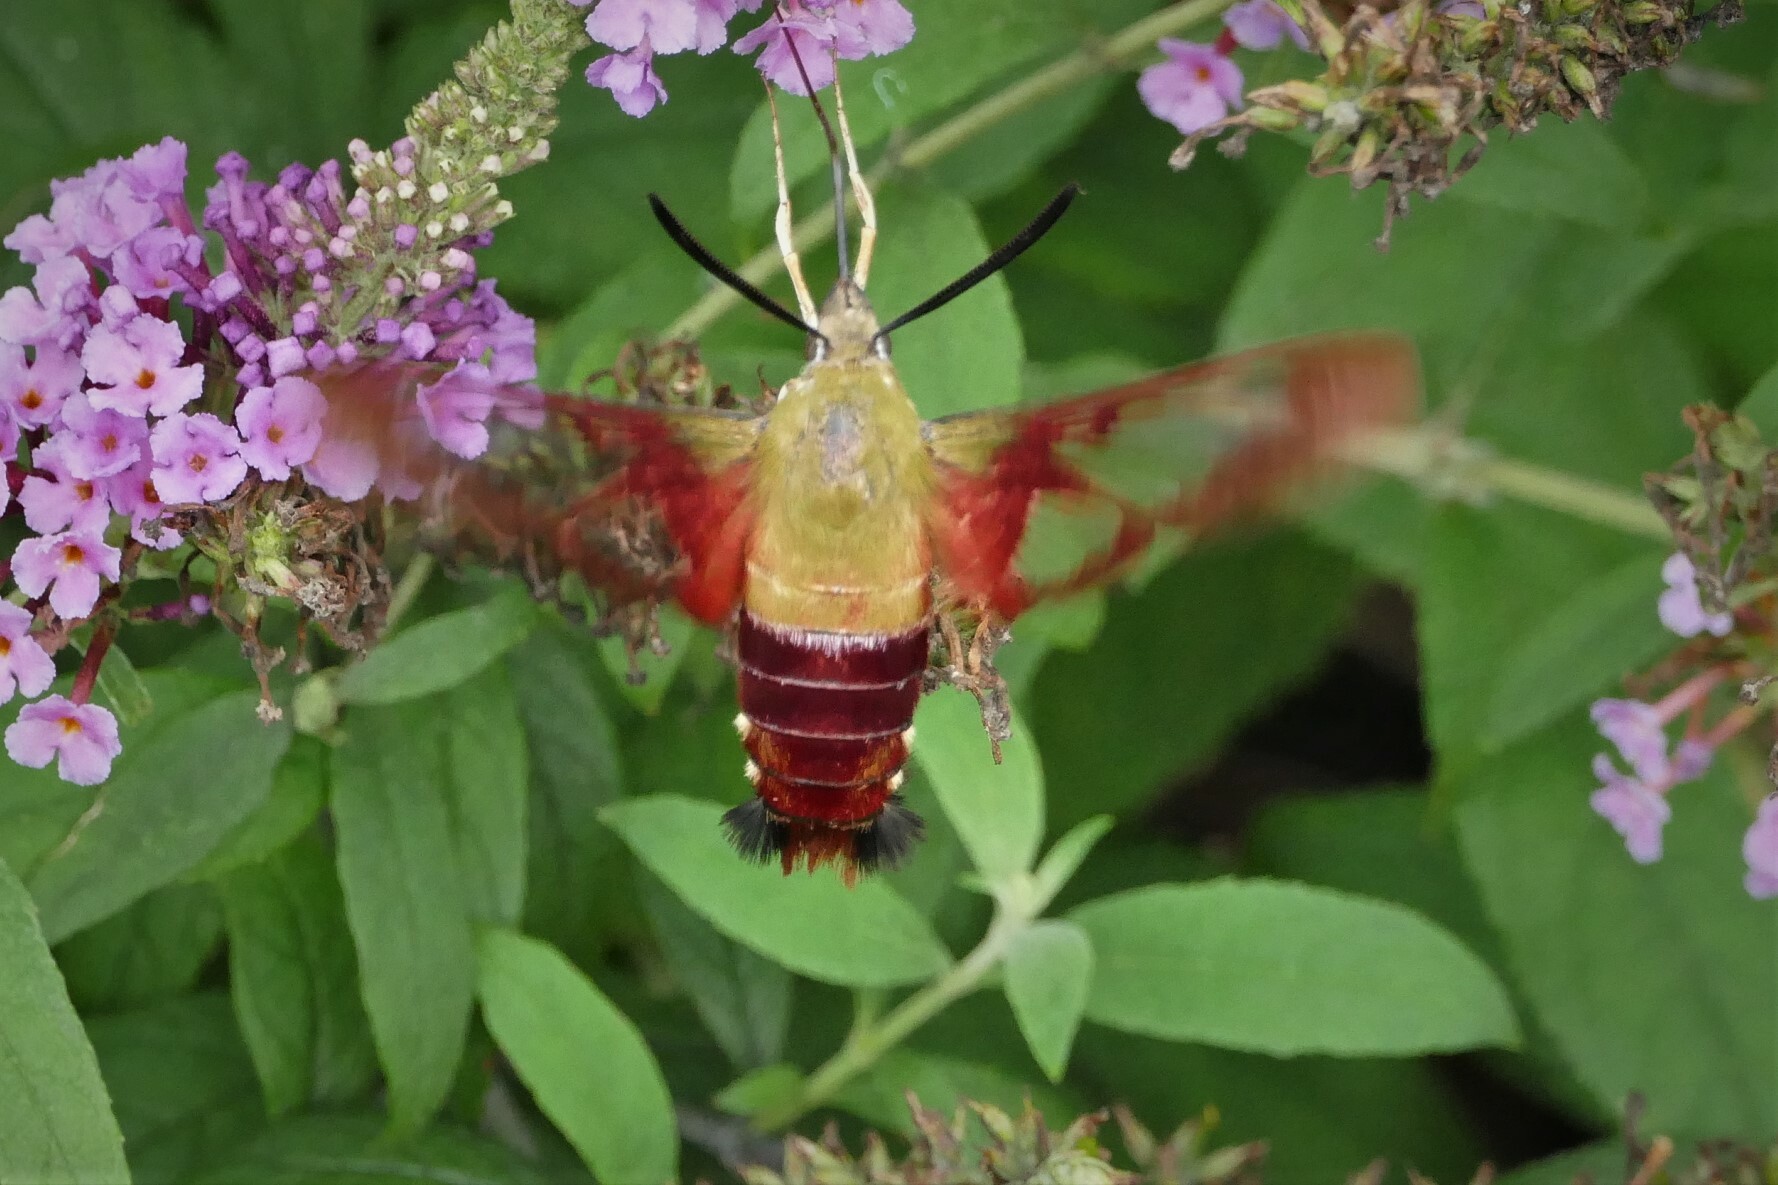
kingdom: Animalia
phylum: Arthropoda
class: Insecta
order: Lepidoptera
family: Sphingidae
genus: Hemaris
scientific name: Hemaris thysbe
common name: Common clear-wing
